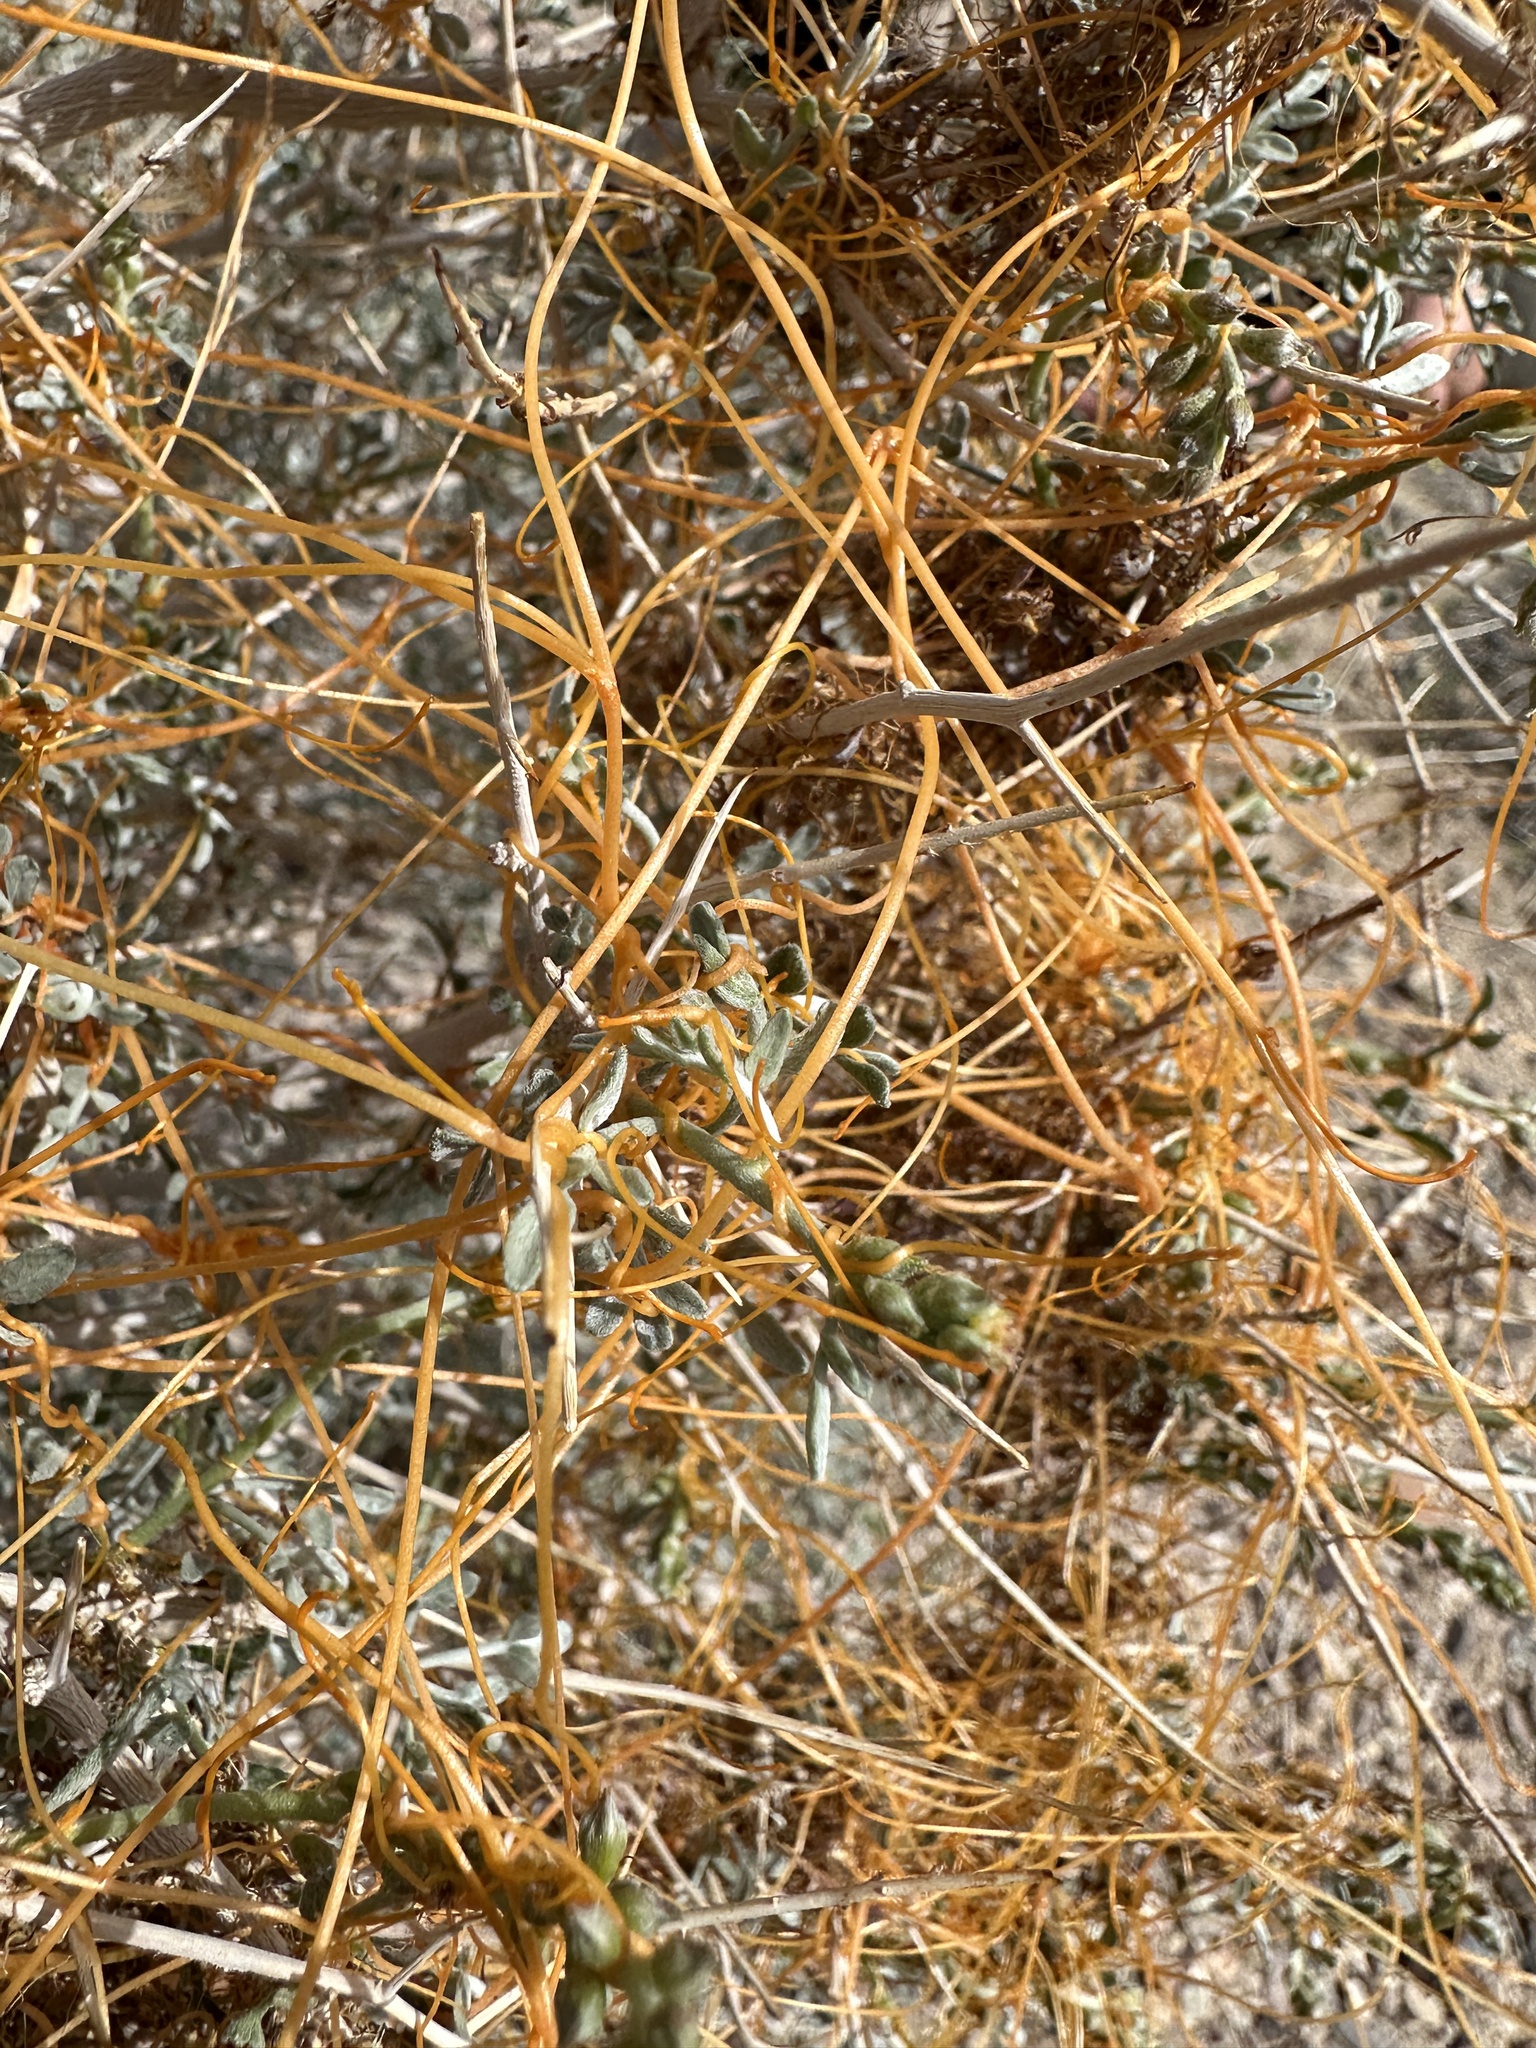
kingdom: Plantae
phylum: Tracheophyta
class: Magnoliopsida
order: Solanales
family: Convolvulaceae
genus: Cuscuta
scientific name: Cuscuta
